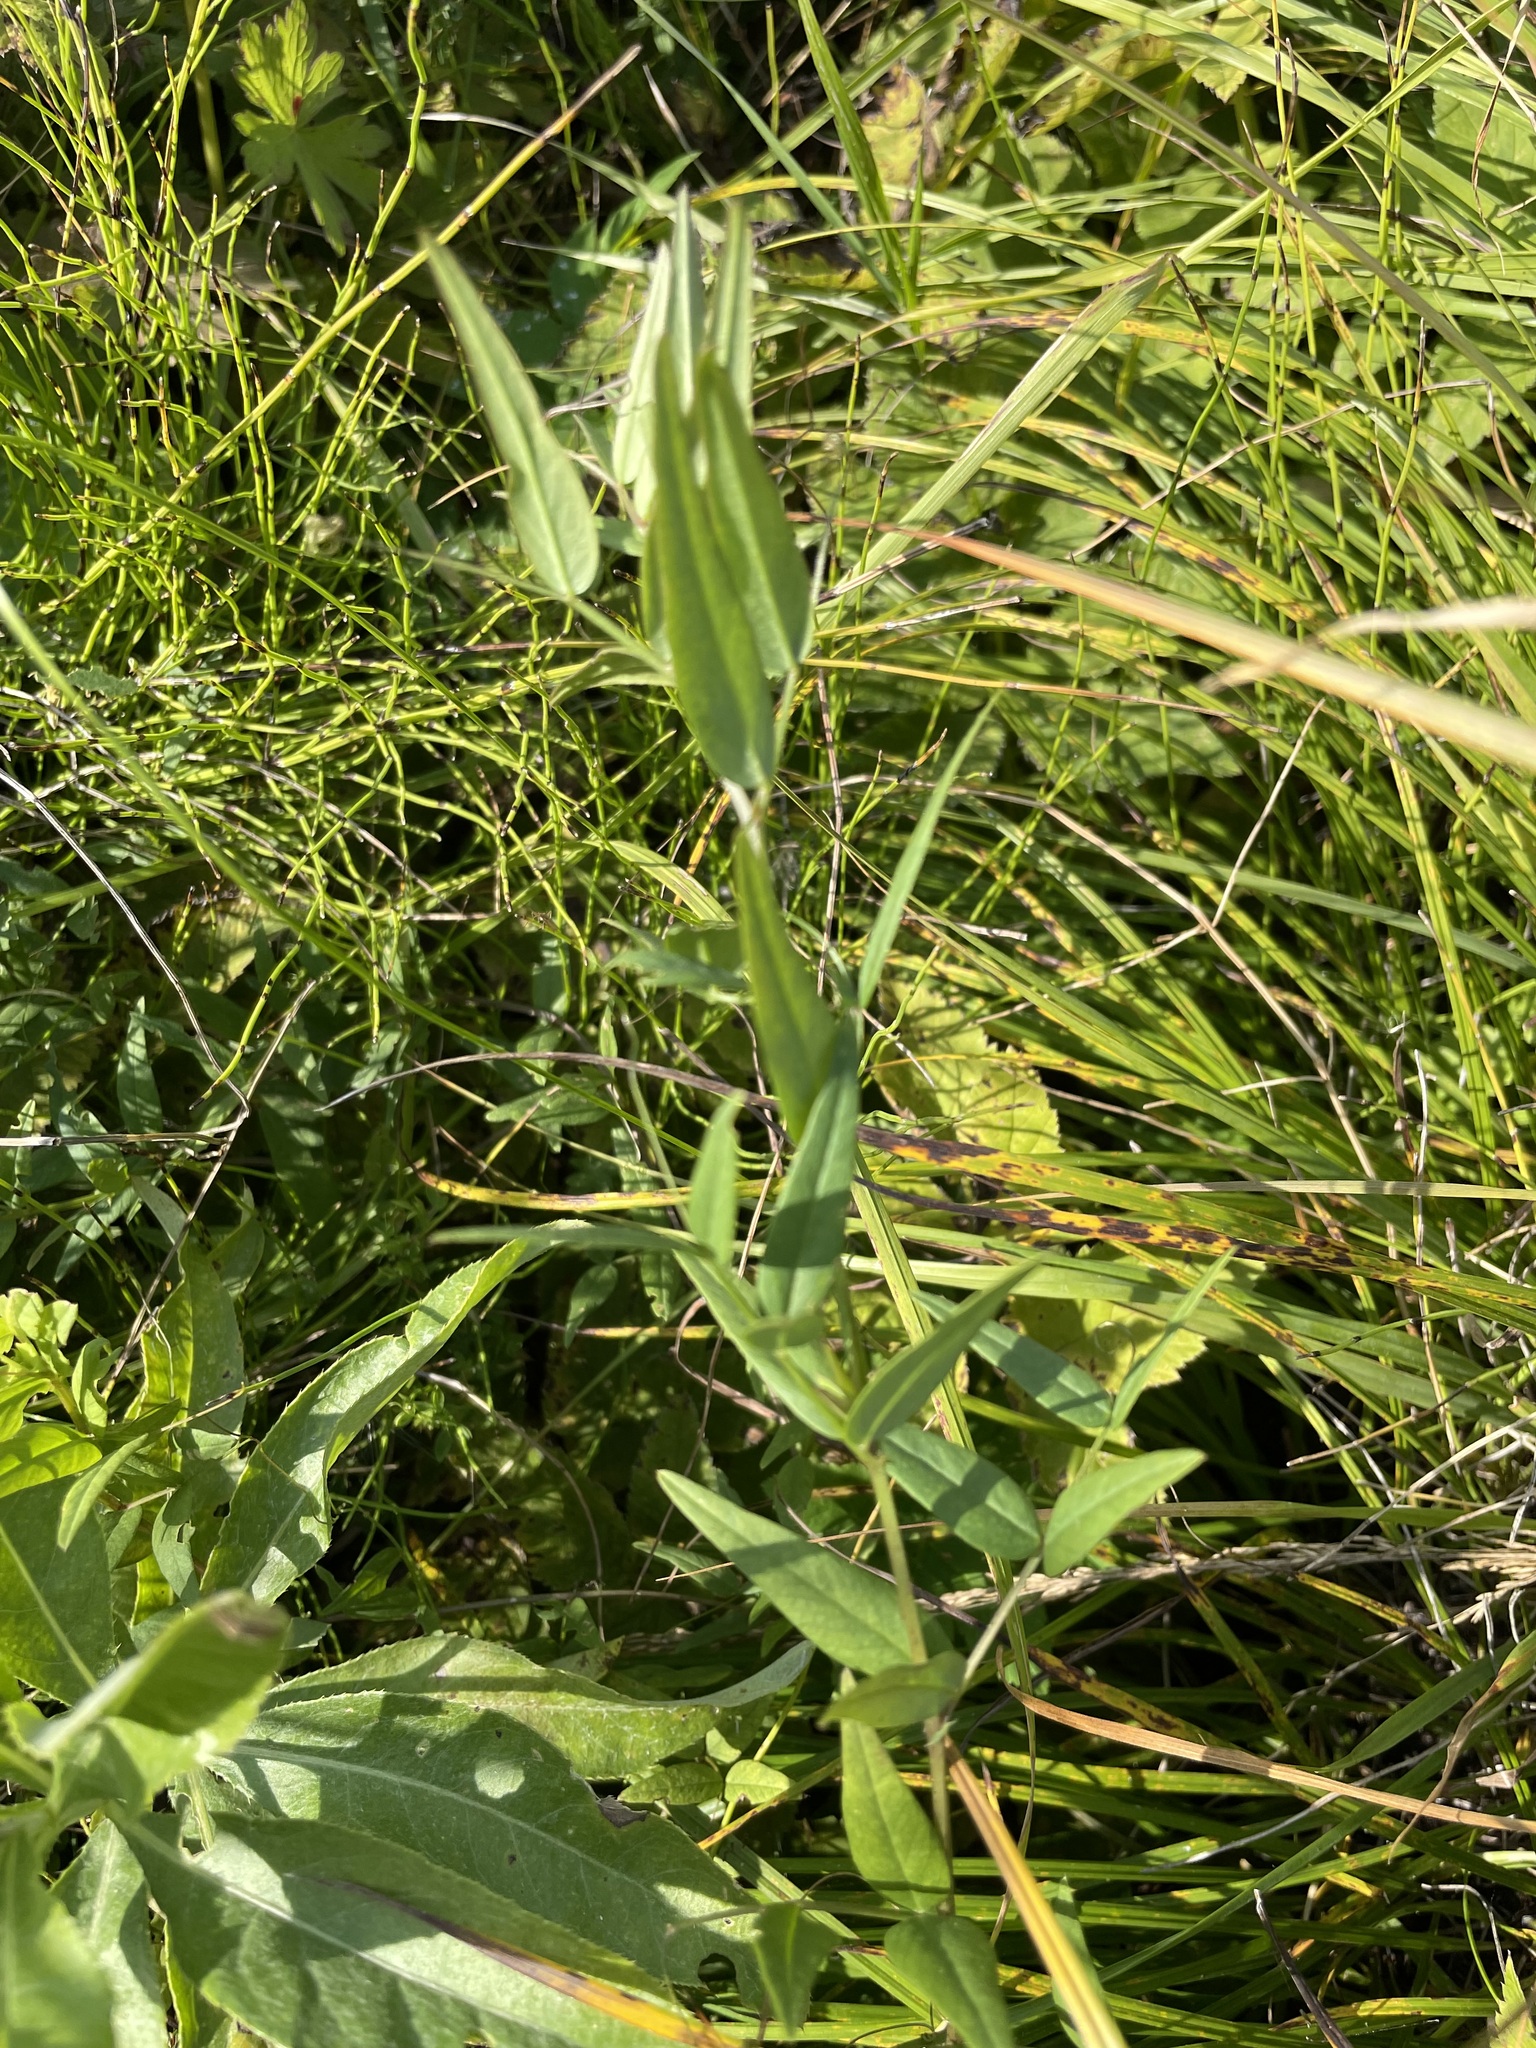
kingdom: Plantae
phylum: Tracheophyta
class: Magnoliopsida
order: Fabales
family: Fabaceae
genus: Lathyrus
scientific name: Lathyrus palustris
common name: Marsh pea
